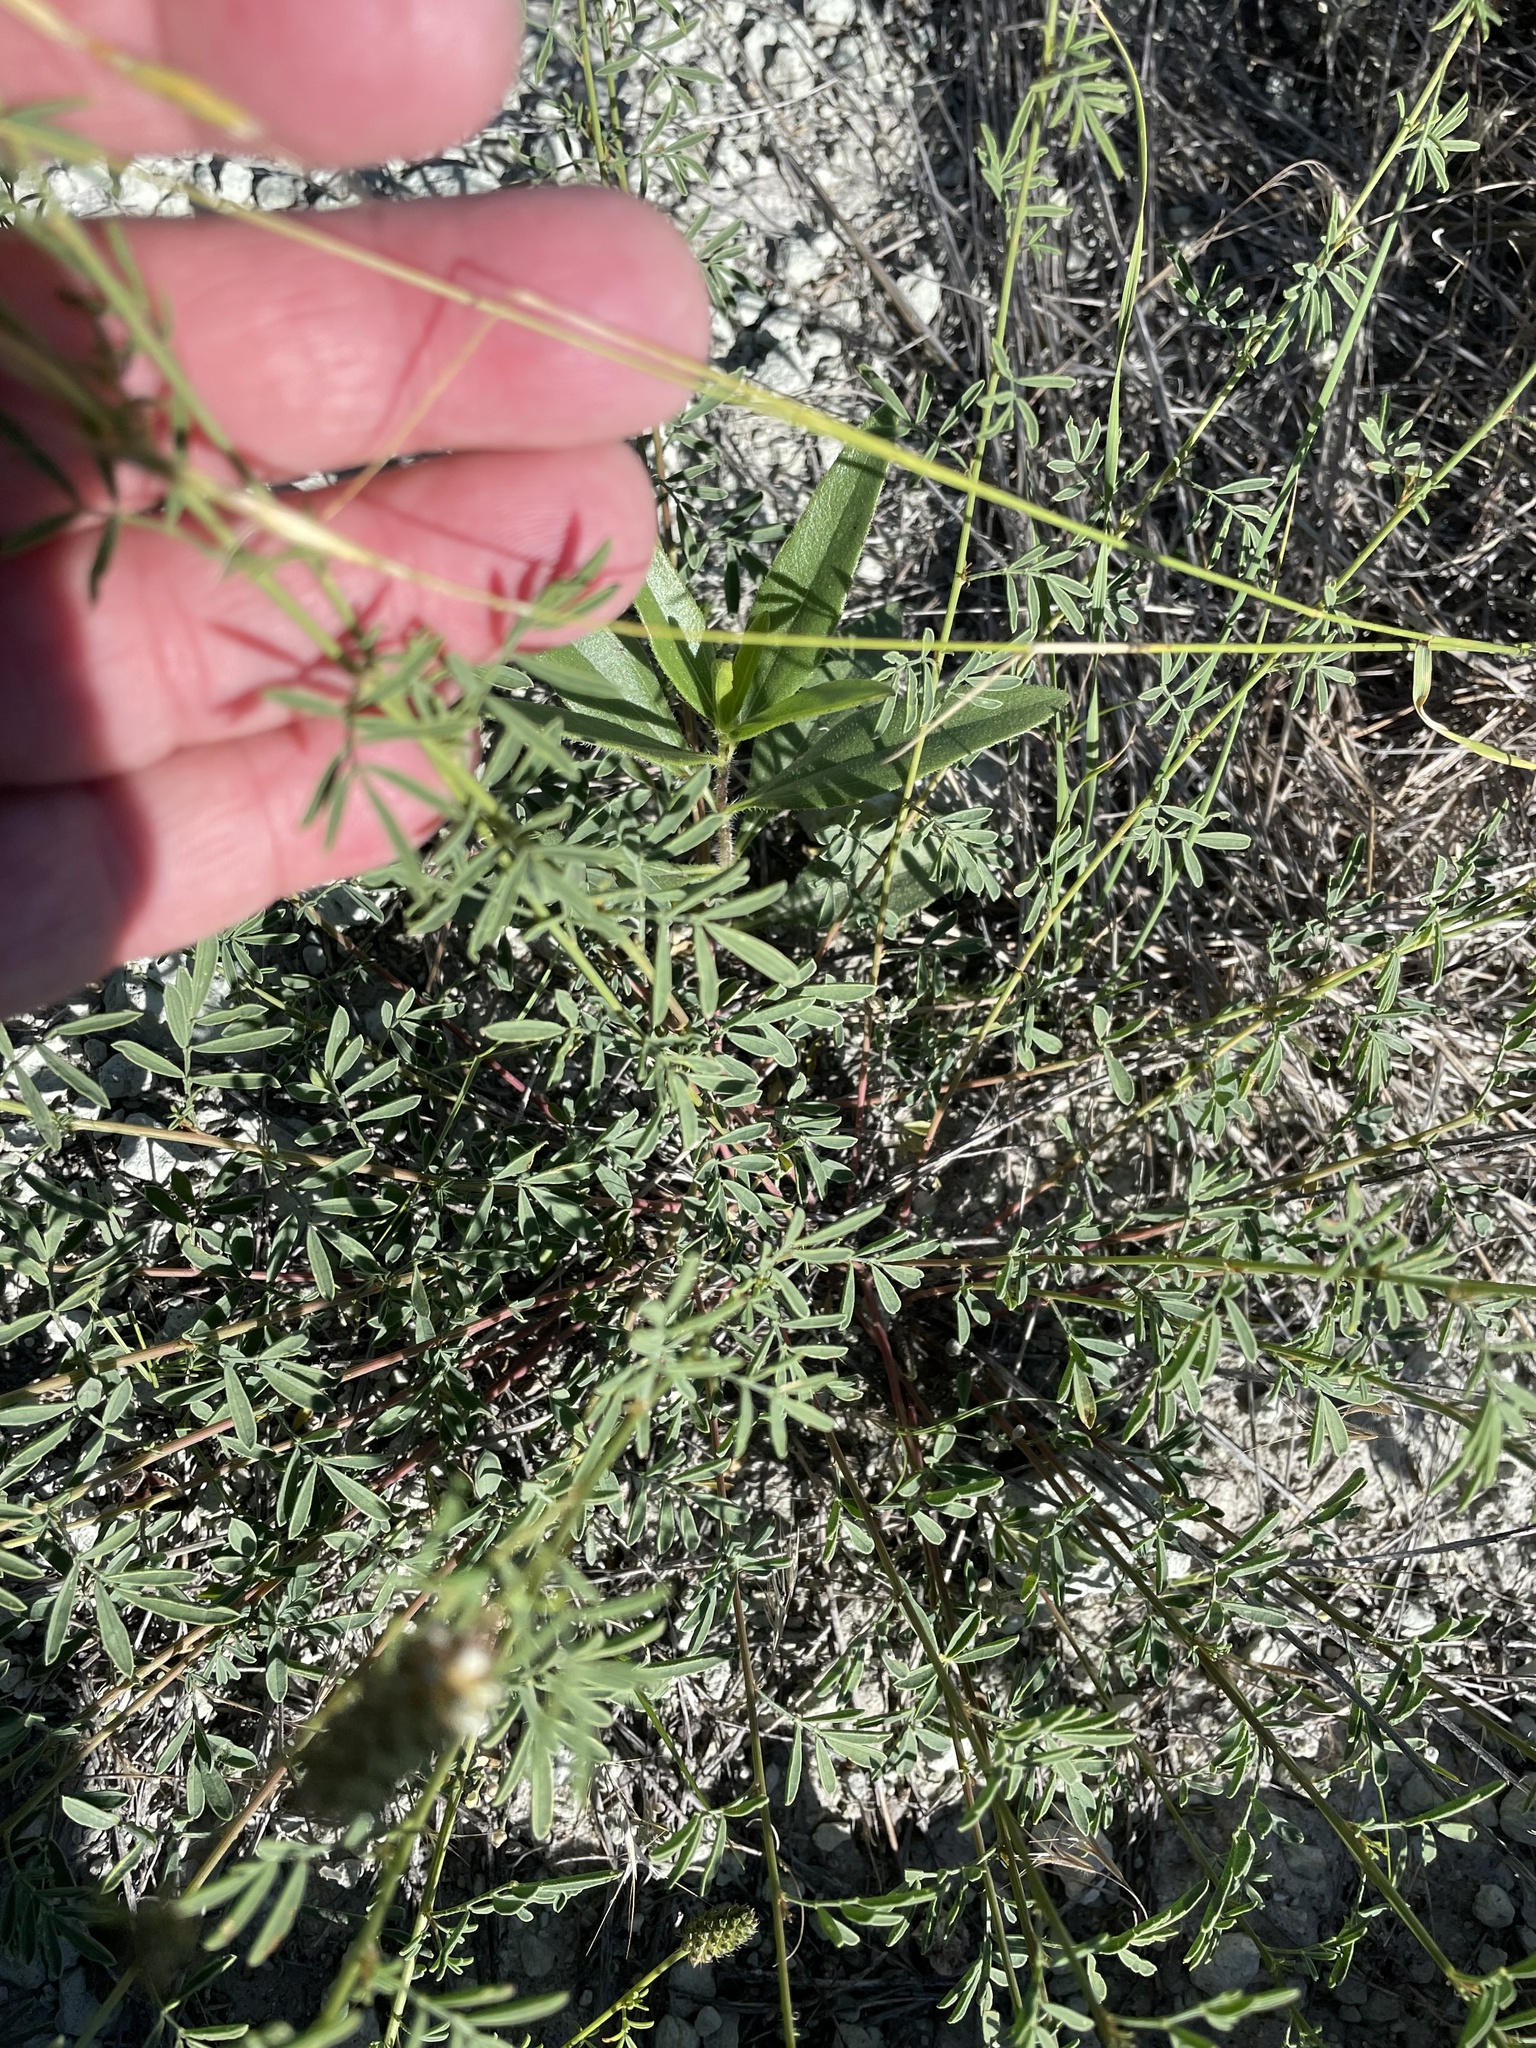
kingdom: Plantae
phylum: Tracheophyta
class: Magnoliopsida
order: Fabales
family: Fabaceae
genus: Dalea
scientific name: Dalea candida
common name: White prairie-clover
